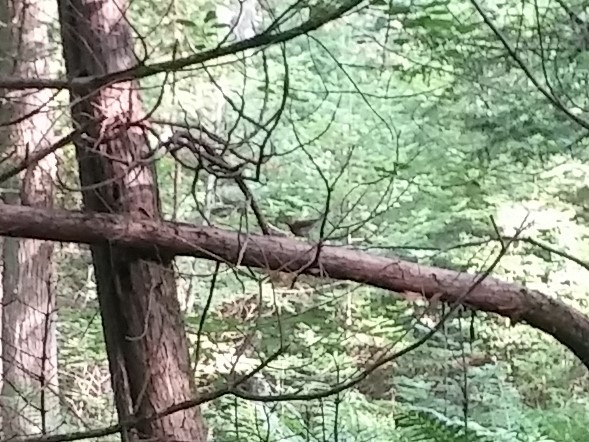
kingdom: Animalia
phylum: Chordata
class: Aves
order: Passeriformes
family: Parulidae
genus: Seiurus
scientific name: Seiurus aurocapilla
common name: Ovenbird
